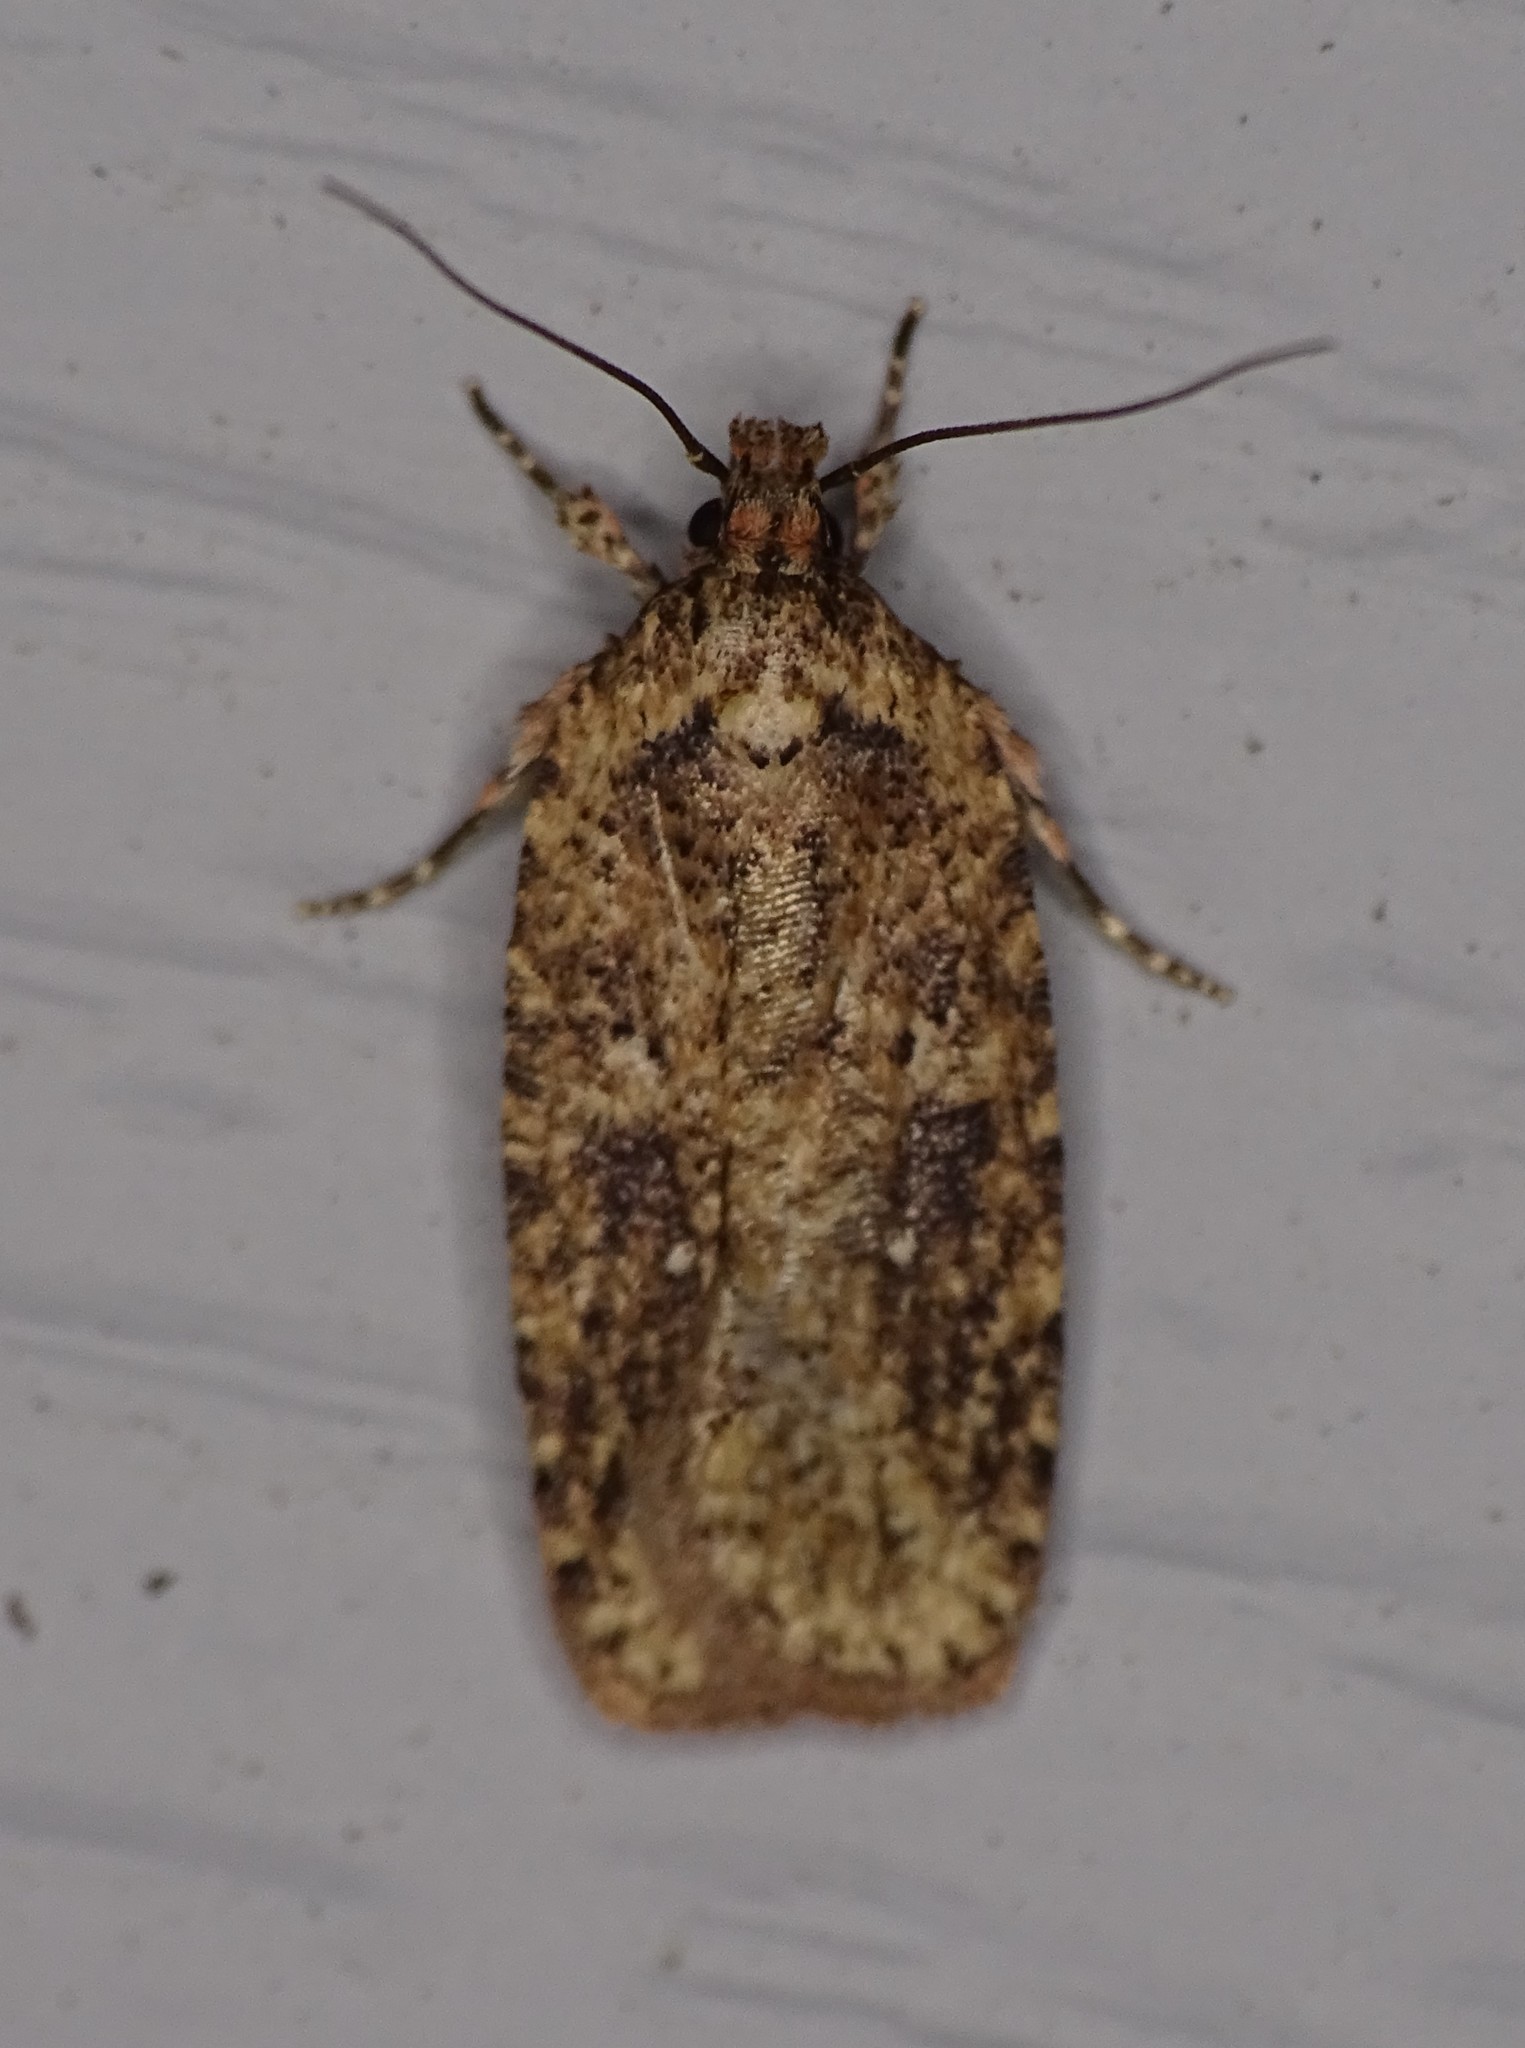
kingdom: Animalia
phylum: Arthropoda
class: Insecta
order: Lepidoptera
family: Depressariidae
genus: Agonopterix
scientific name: Agonopterix pulvipennella
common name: Goldenrod leafffolder
